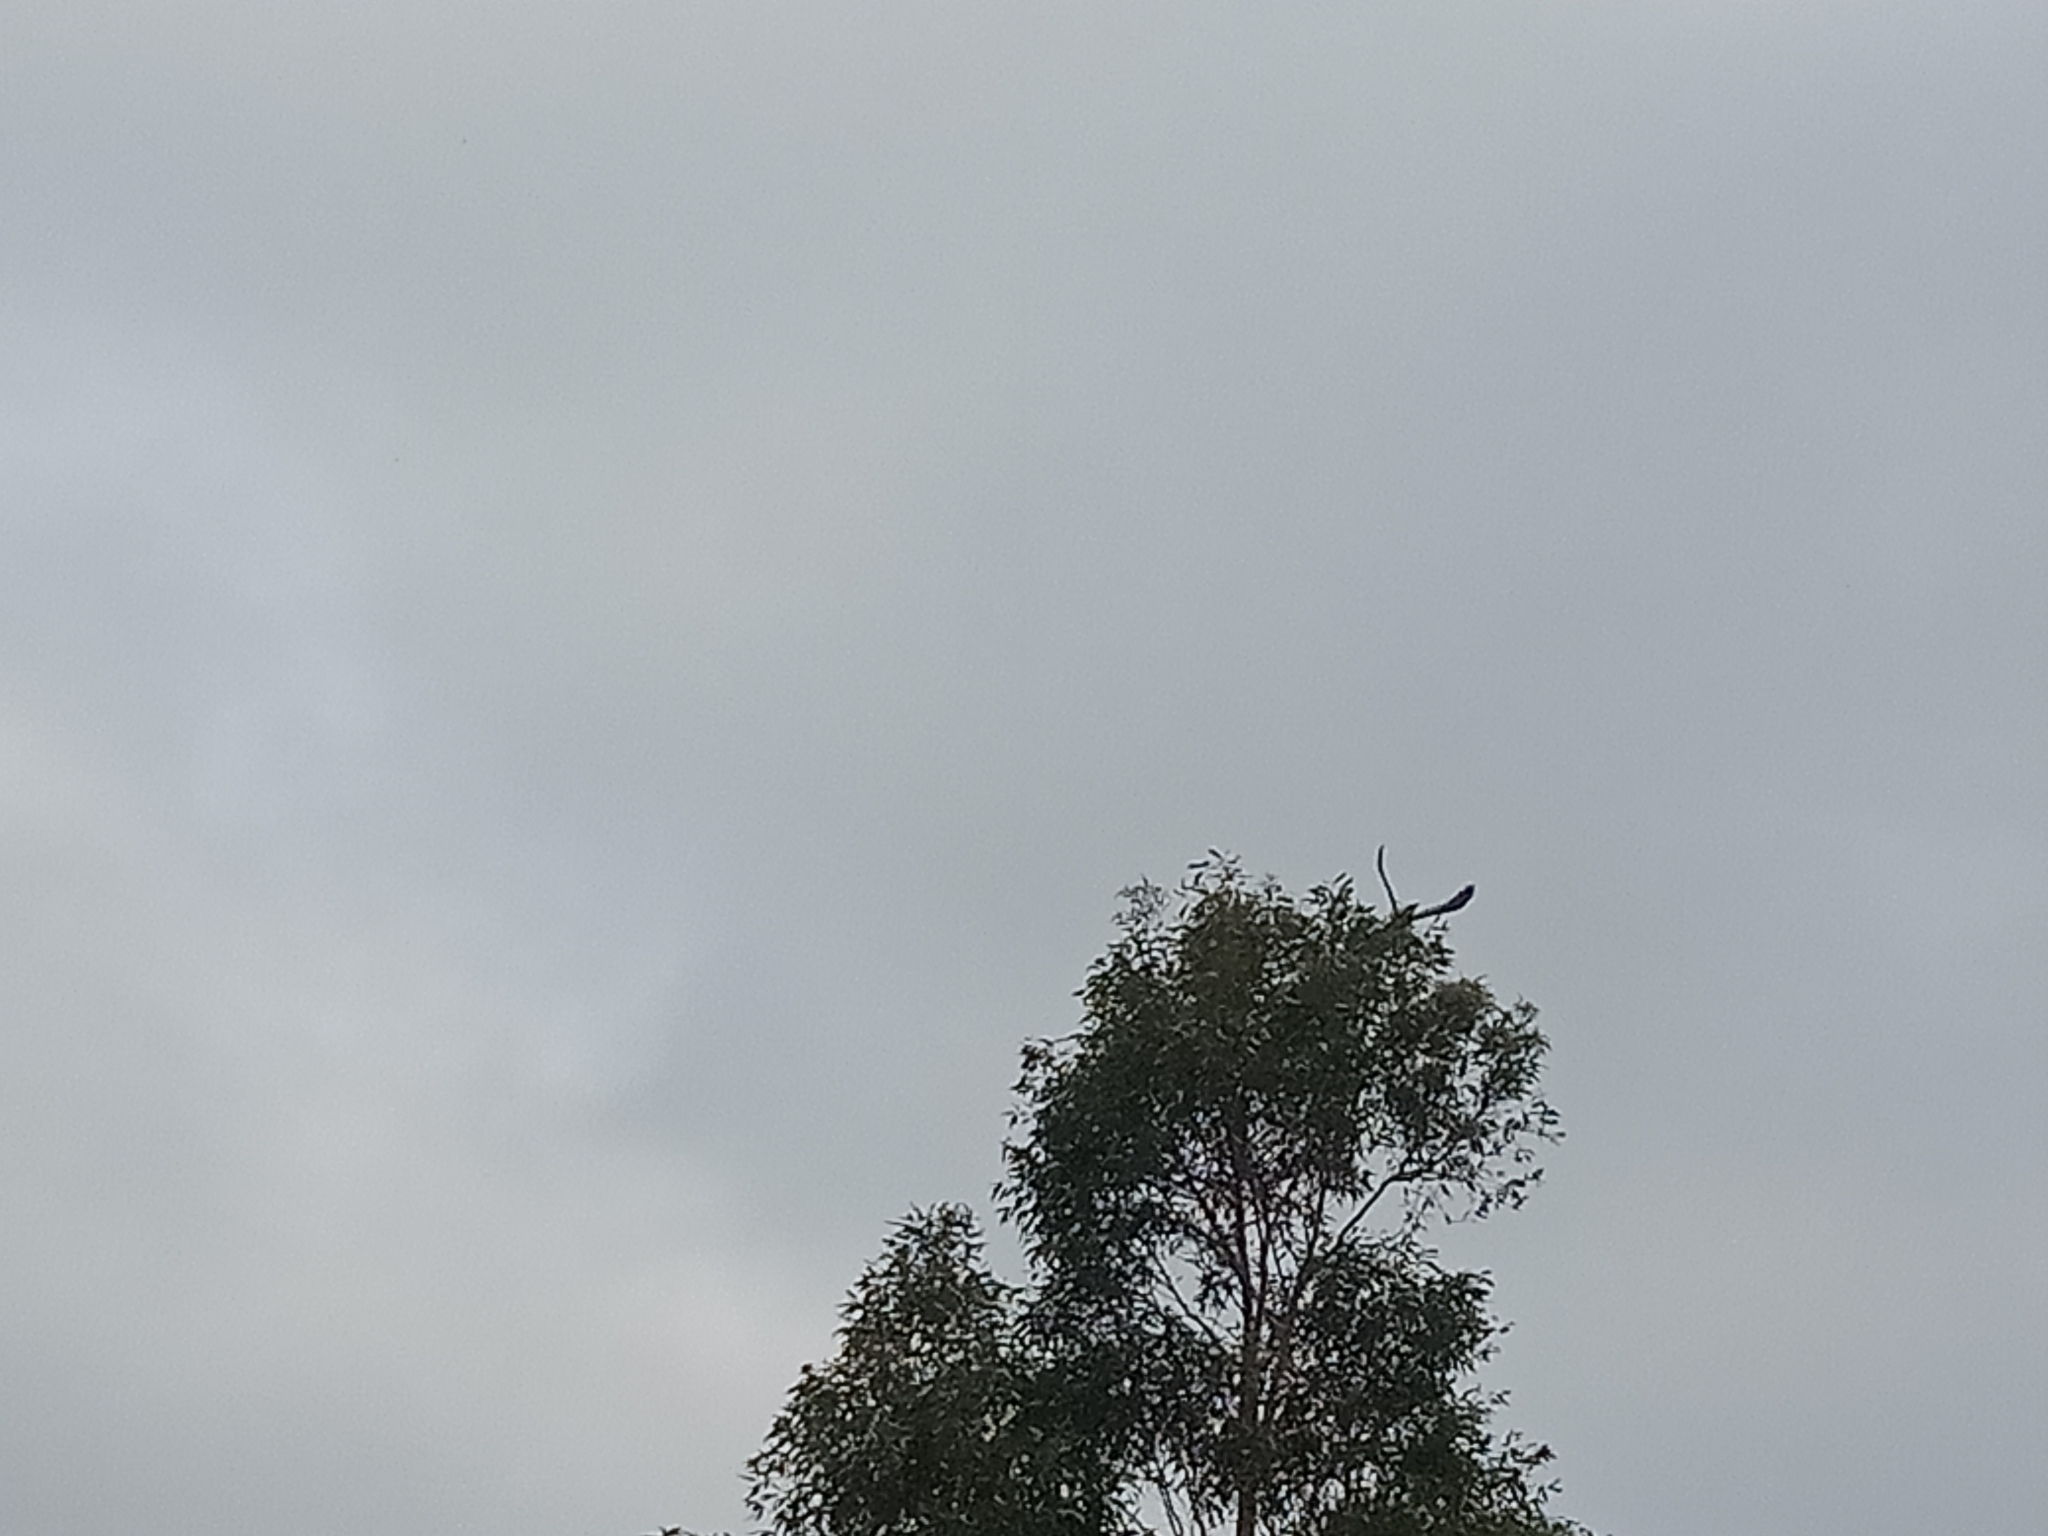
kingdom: Animalia
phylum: Chordata
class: Aves
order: Passeriformes
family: Corvidae
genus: Corvus
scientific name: Corvus coronoides
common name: Australian raven
